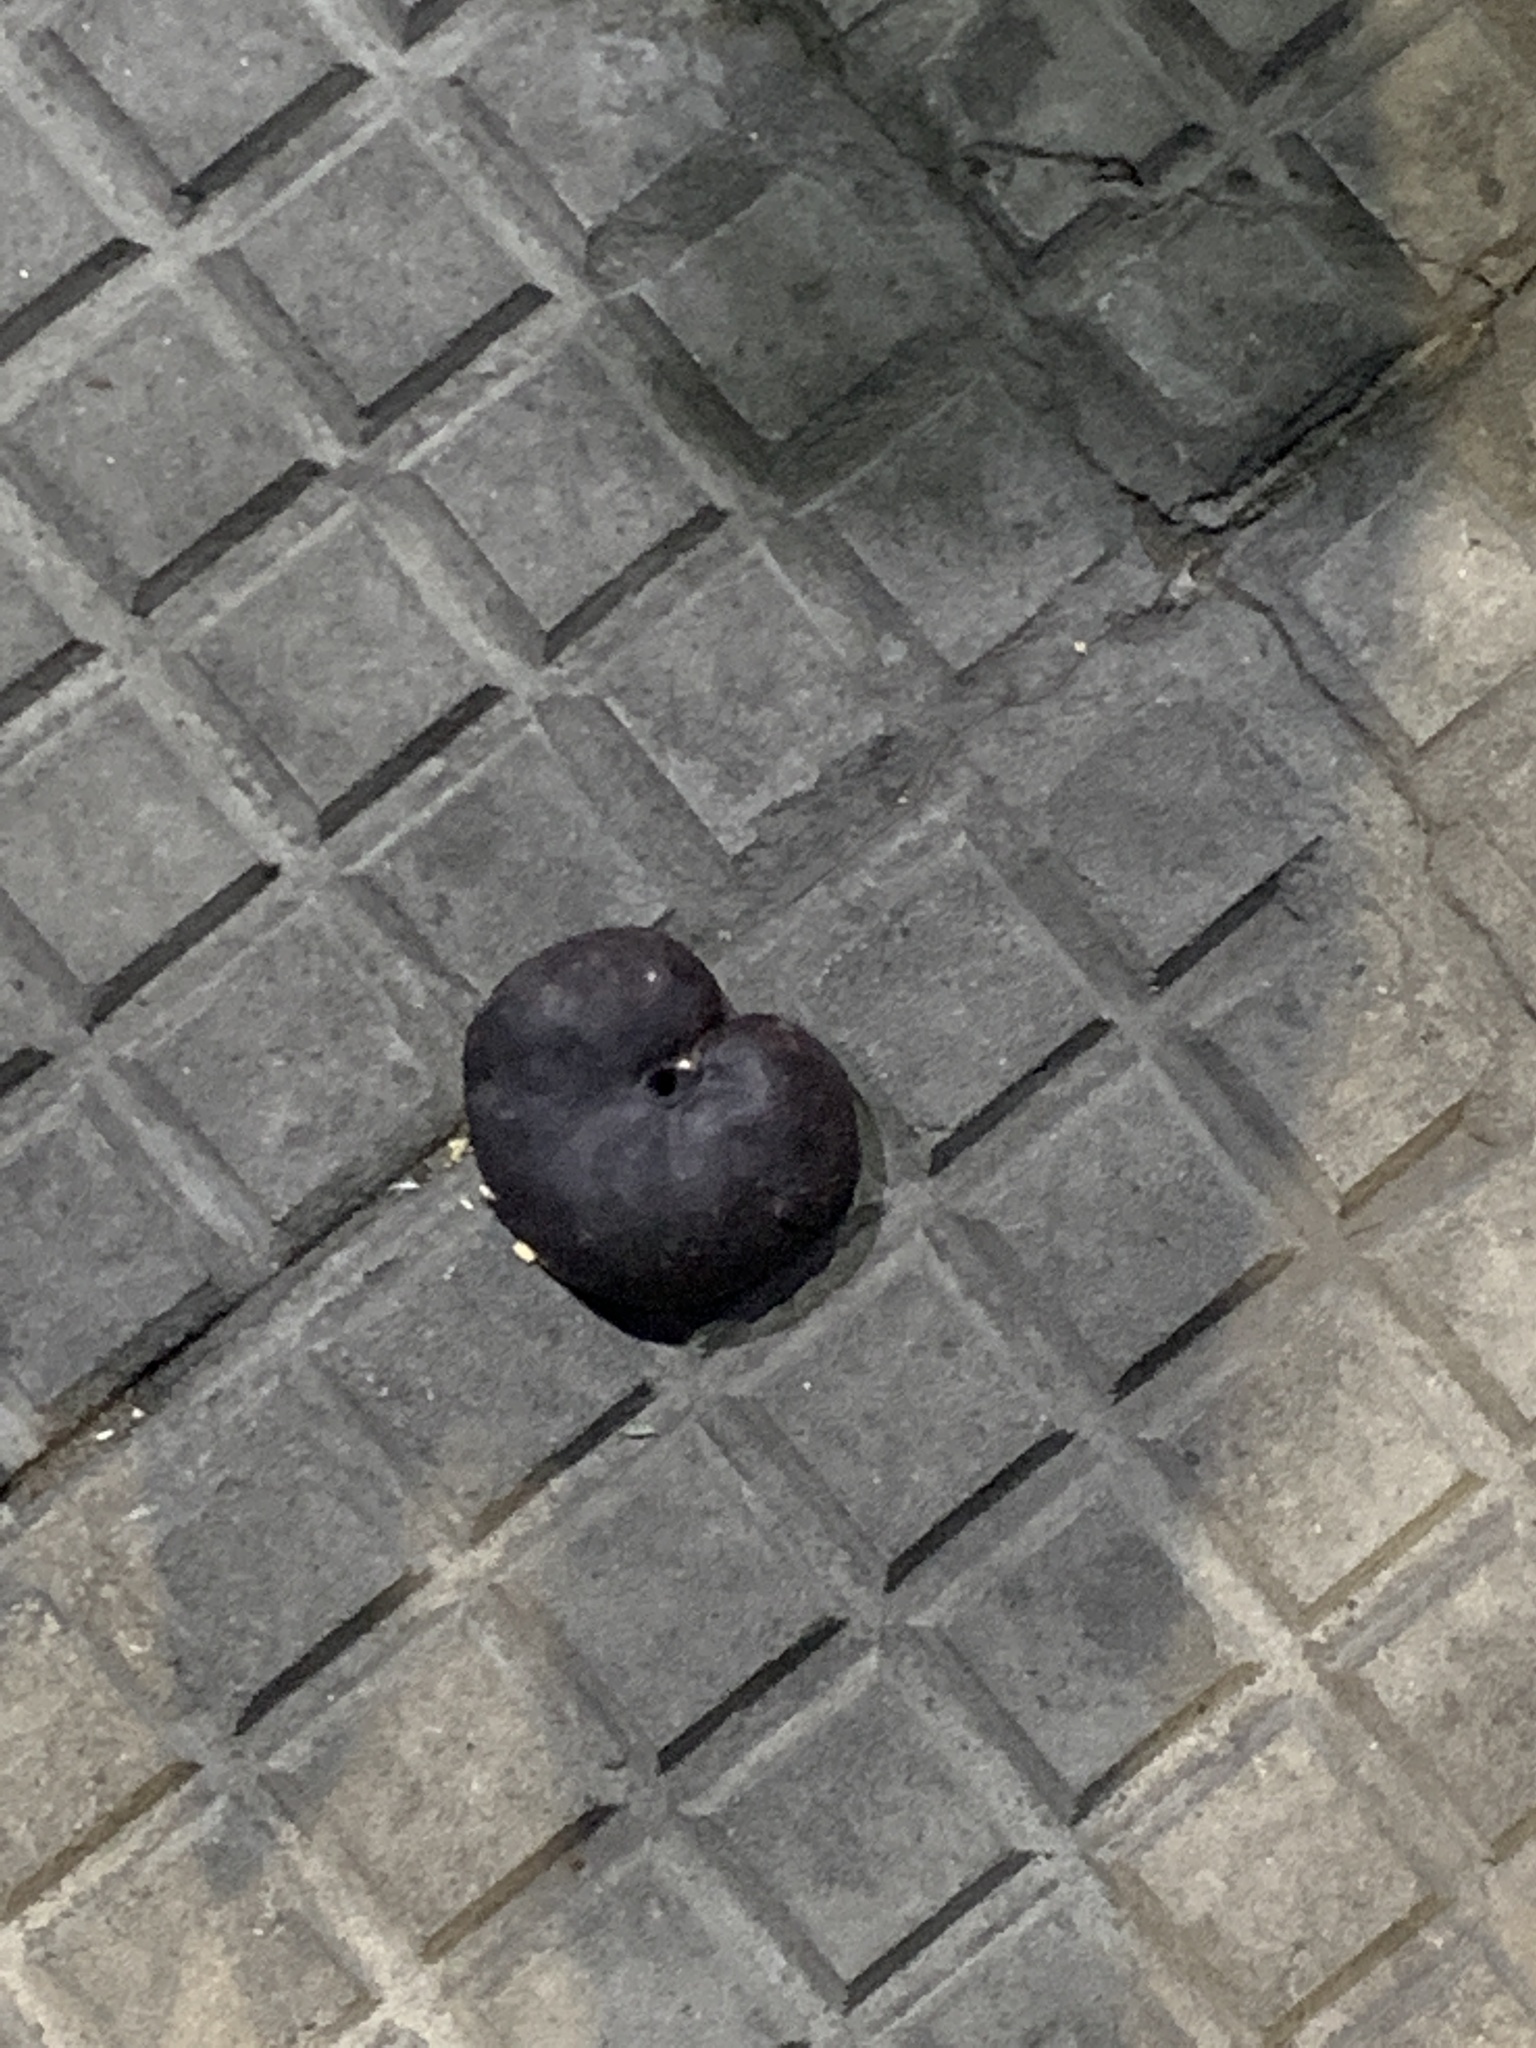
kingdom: Plantae
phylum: Tracheophyta
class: Magnoliopsida
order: Fabales
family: Fabaceae
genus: Enterolobium
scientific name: Enterolobium contortisiliquum
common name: Pacara earpod tree
